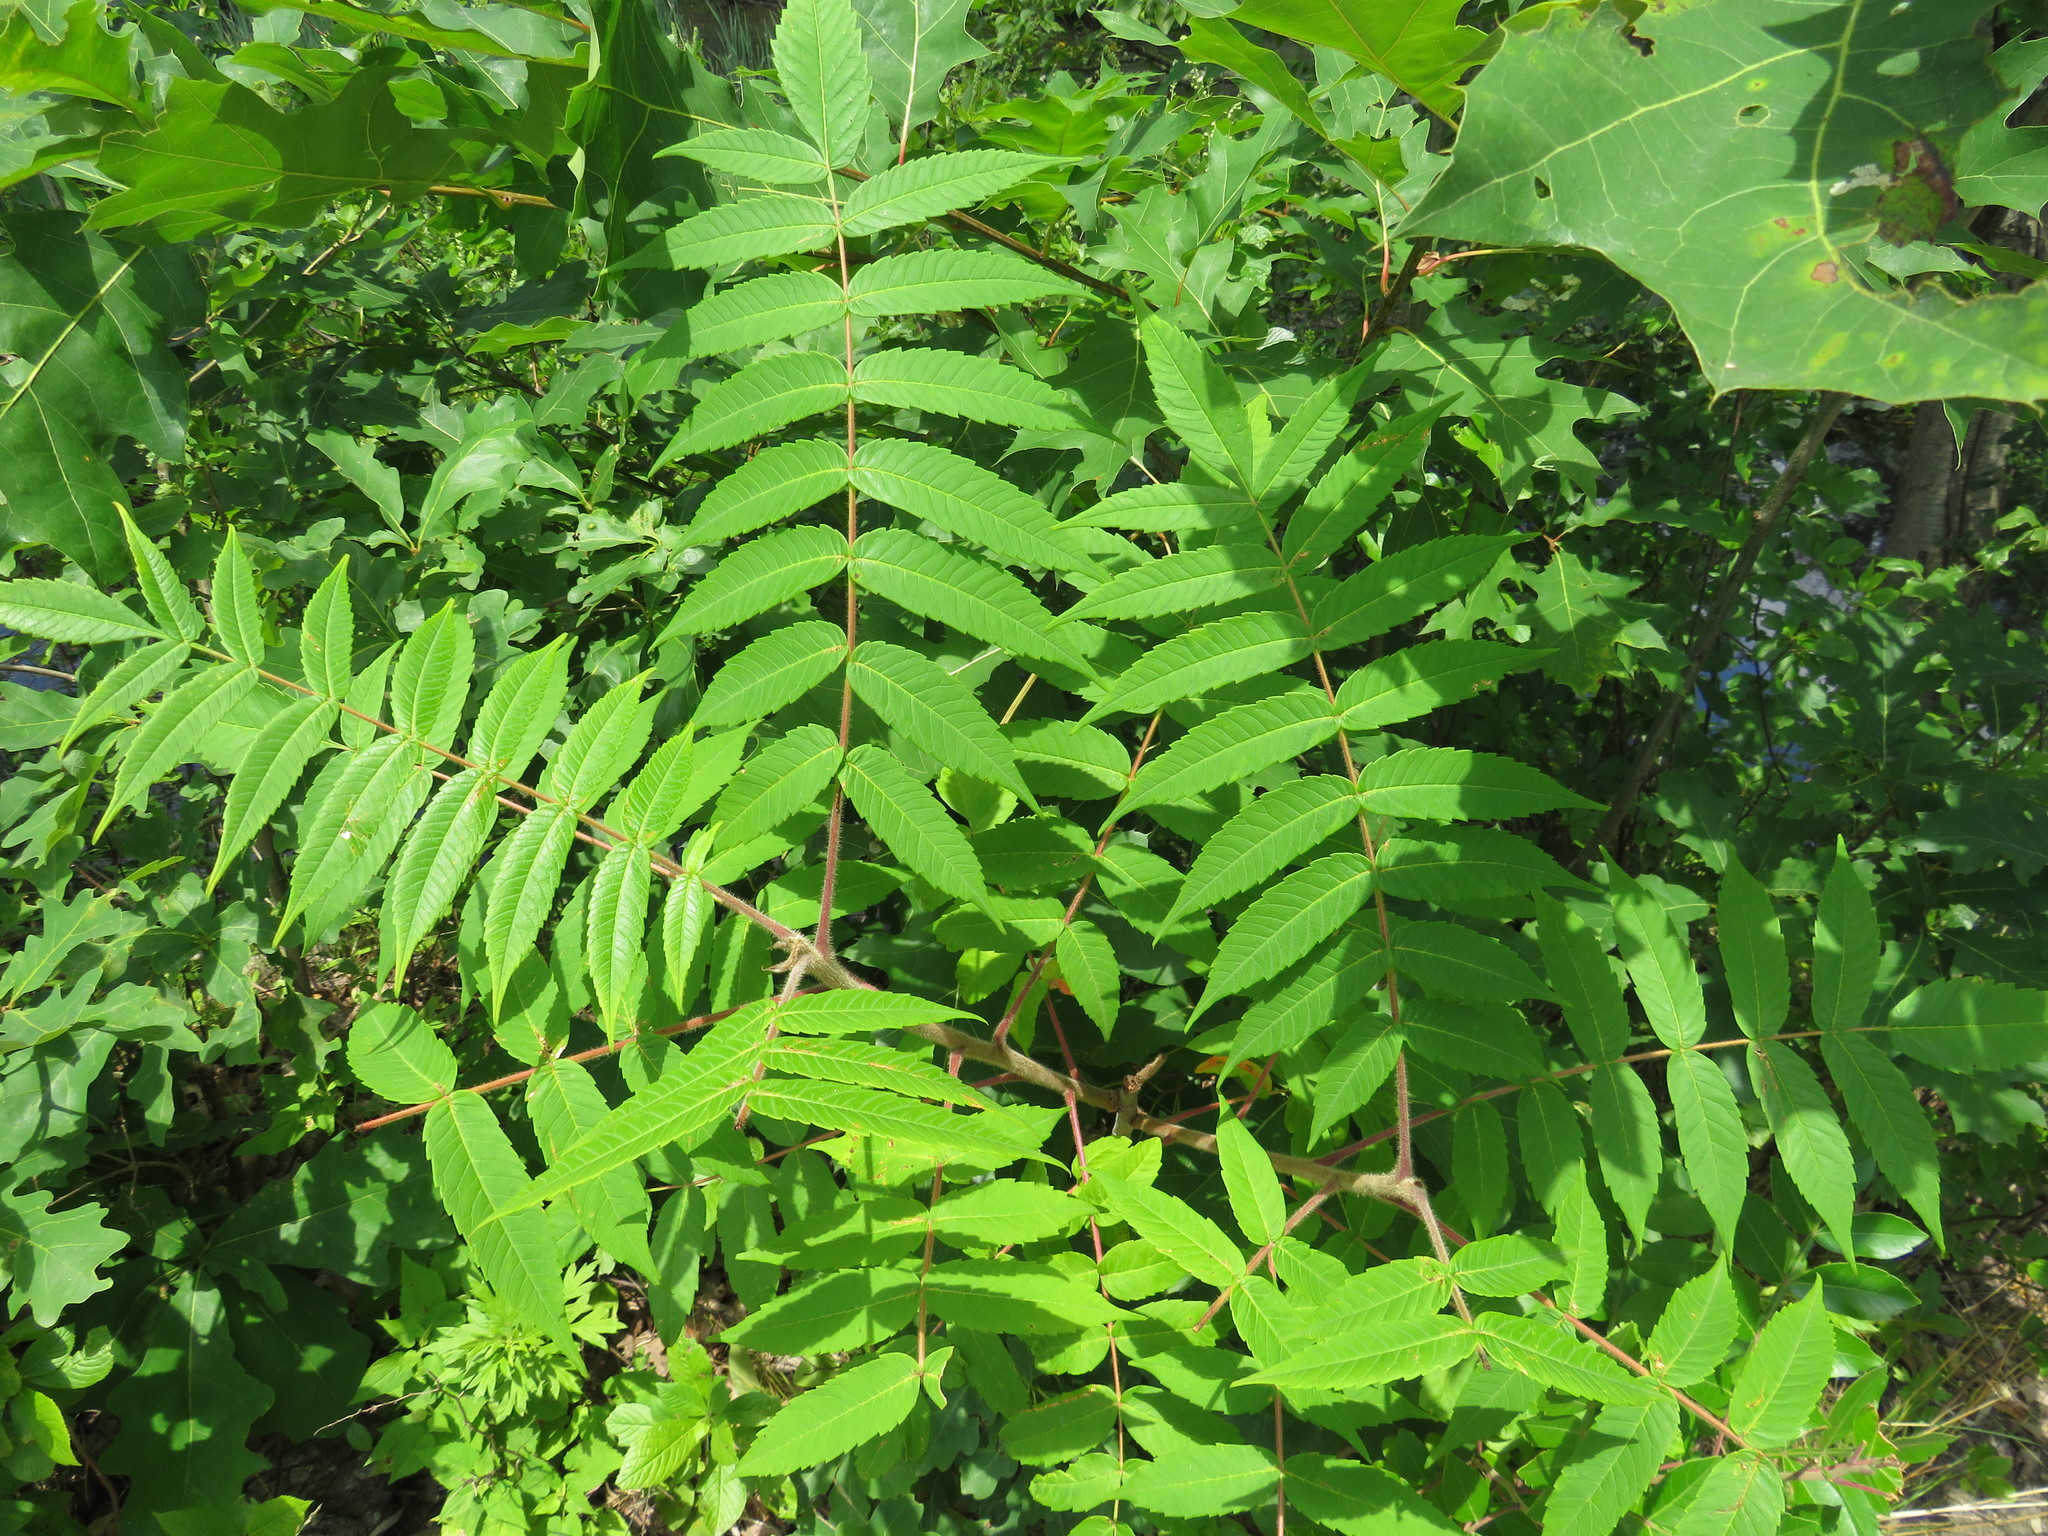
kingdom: Plantae
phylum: Tracheophyta
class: Magnoliopsida
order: Sapindales
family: Anacardiaceae
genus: Rhus
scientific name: Rhus typhina
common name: Staghorn sumac
